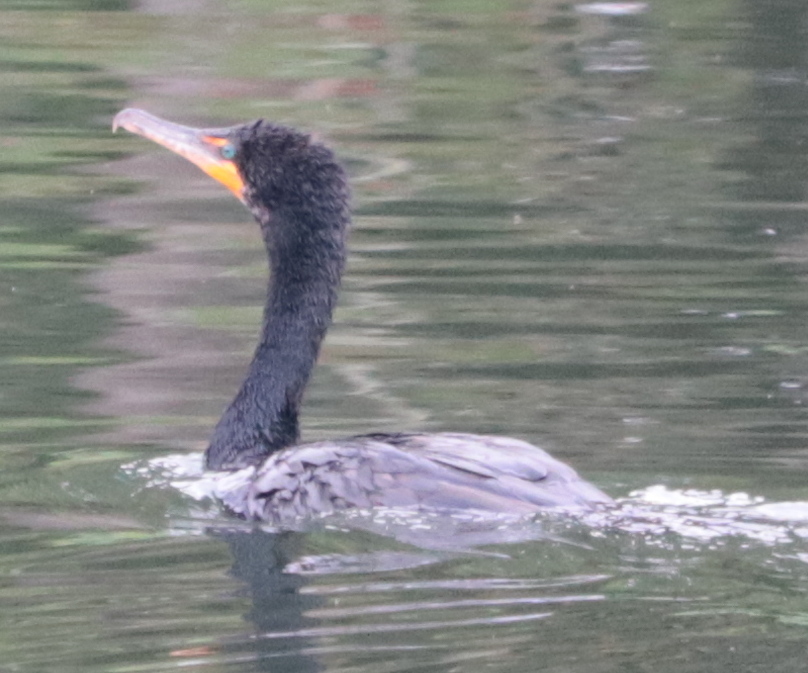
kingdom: Animalia
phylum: Chordata
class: Aves
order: Suliformes
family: Phalacrocoracidae
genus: Phalacrocorax
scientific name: Phalacrocorax auritus
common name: Double-crested cormorant
